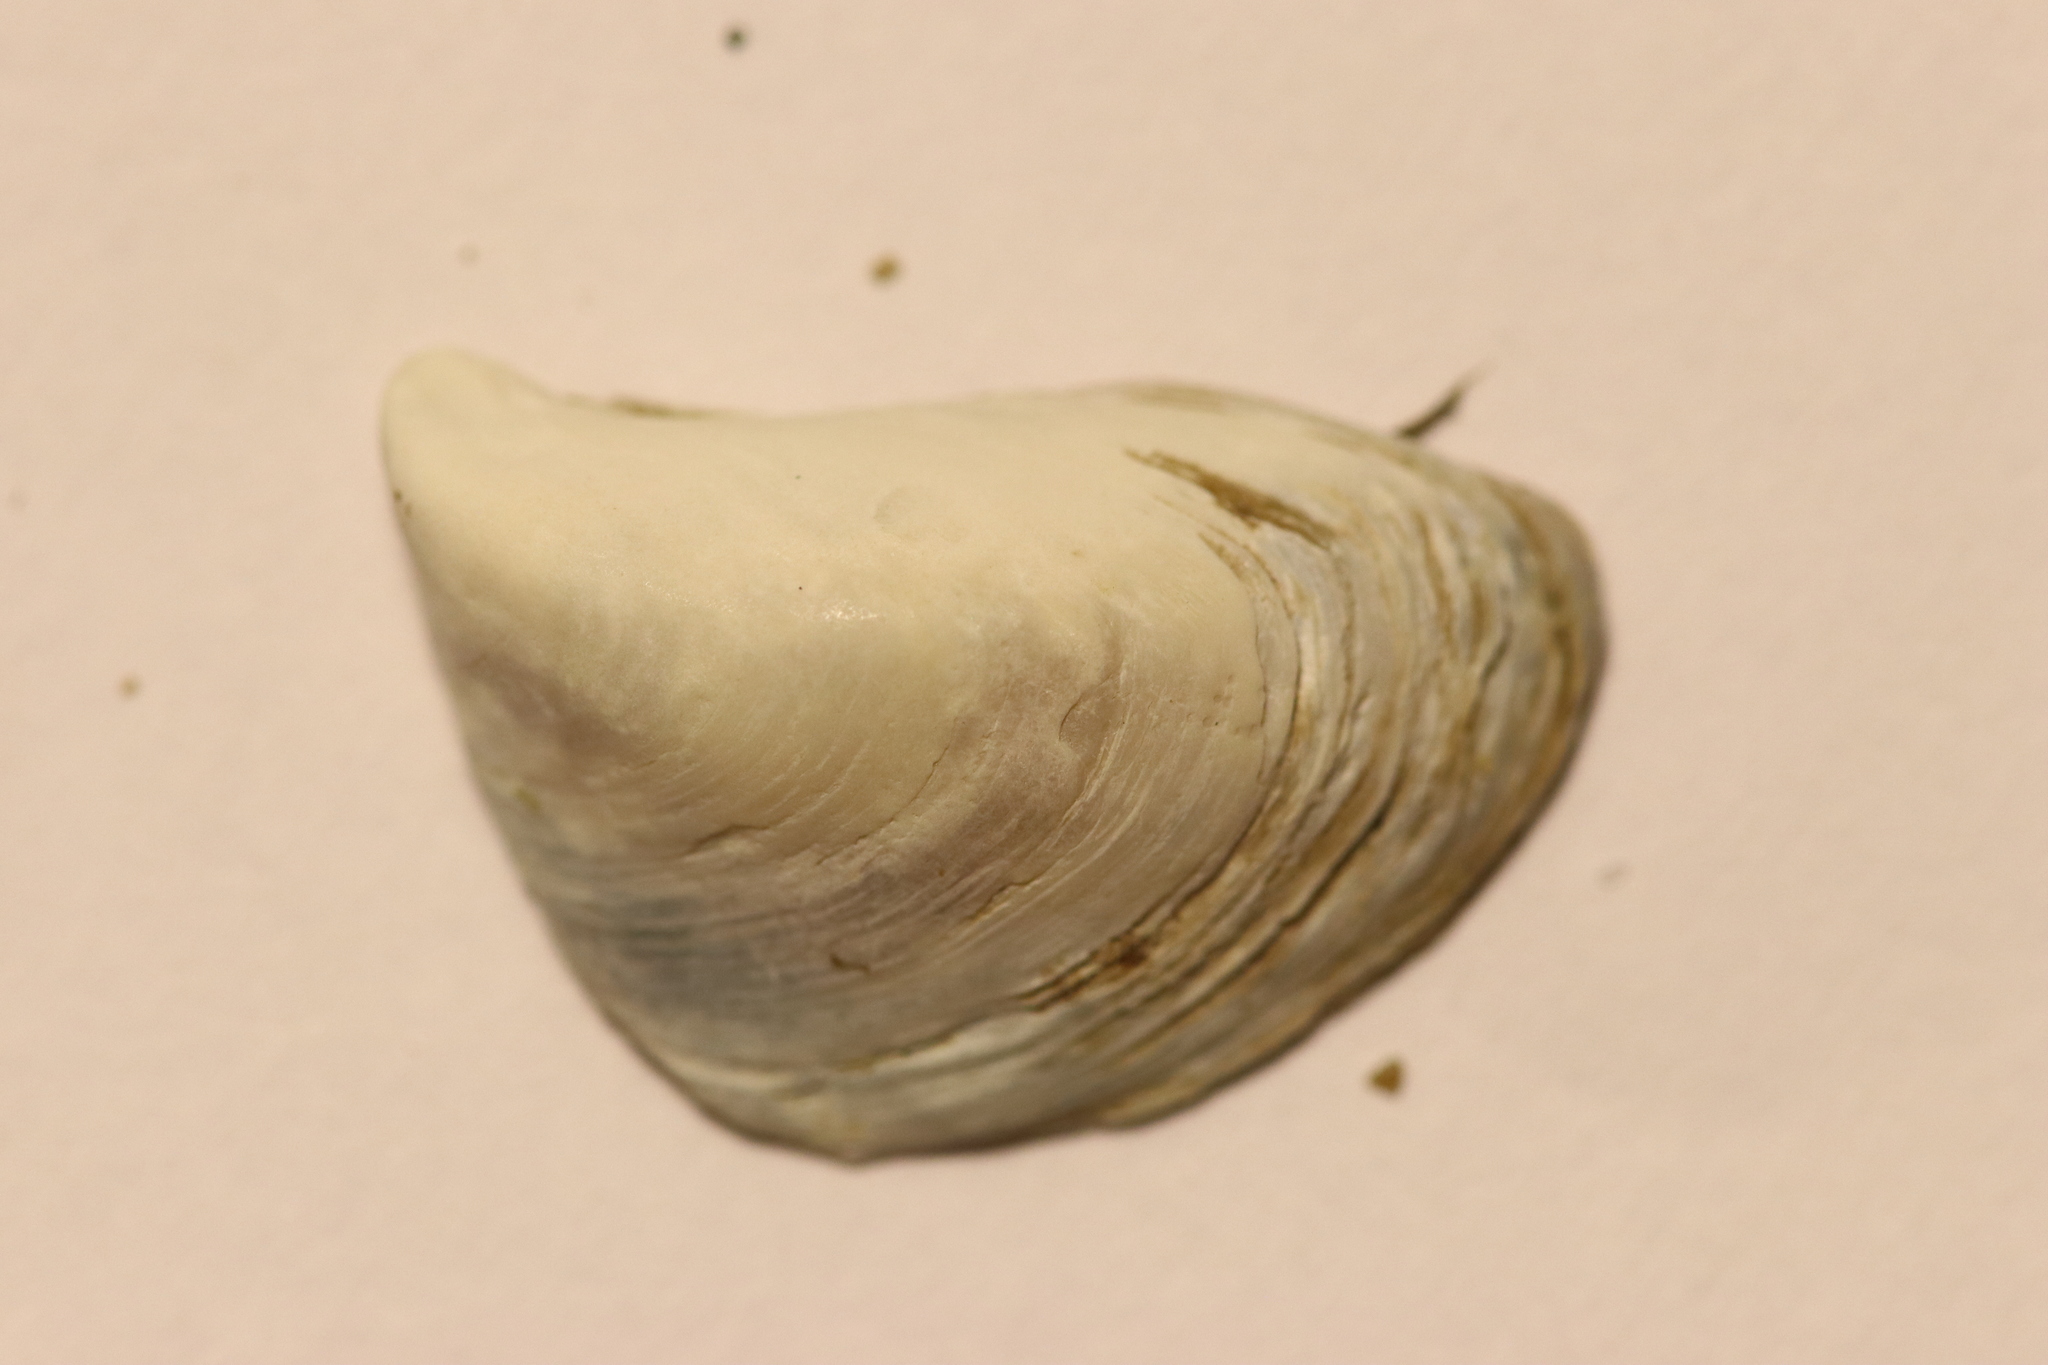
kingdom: Animalia
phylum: Mollusca
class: Bivalvia
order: Myida
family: Dreissenidae
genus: Dreissena
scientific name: Dreissena bugensis
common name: Quagga mussel
